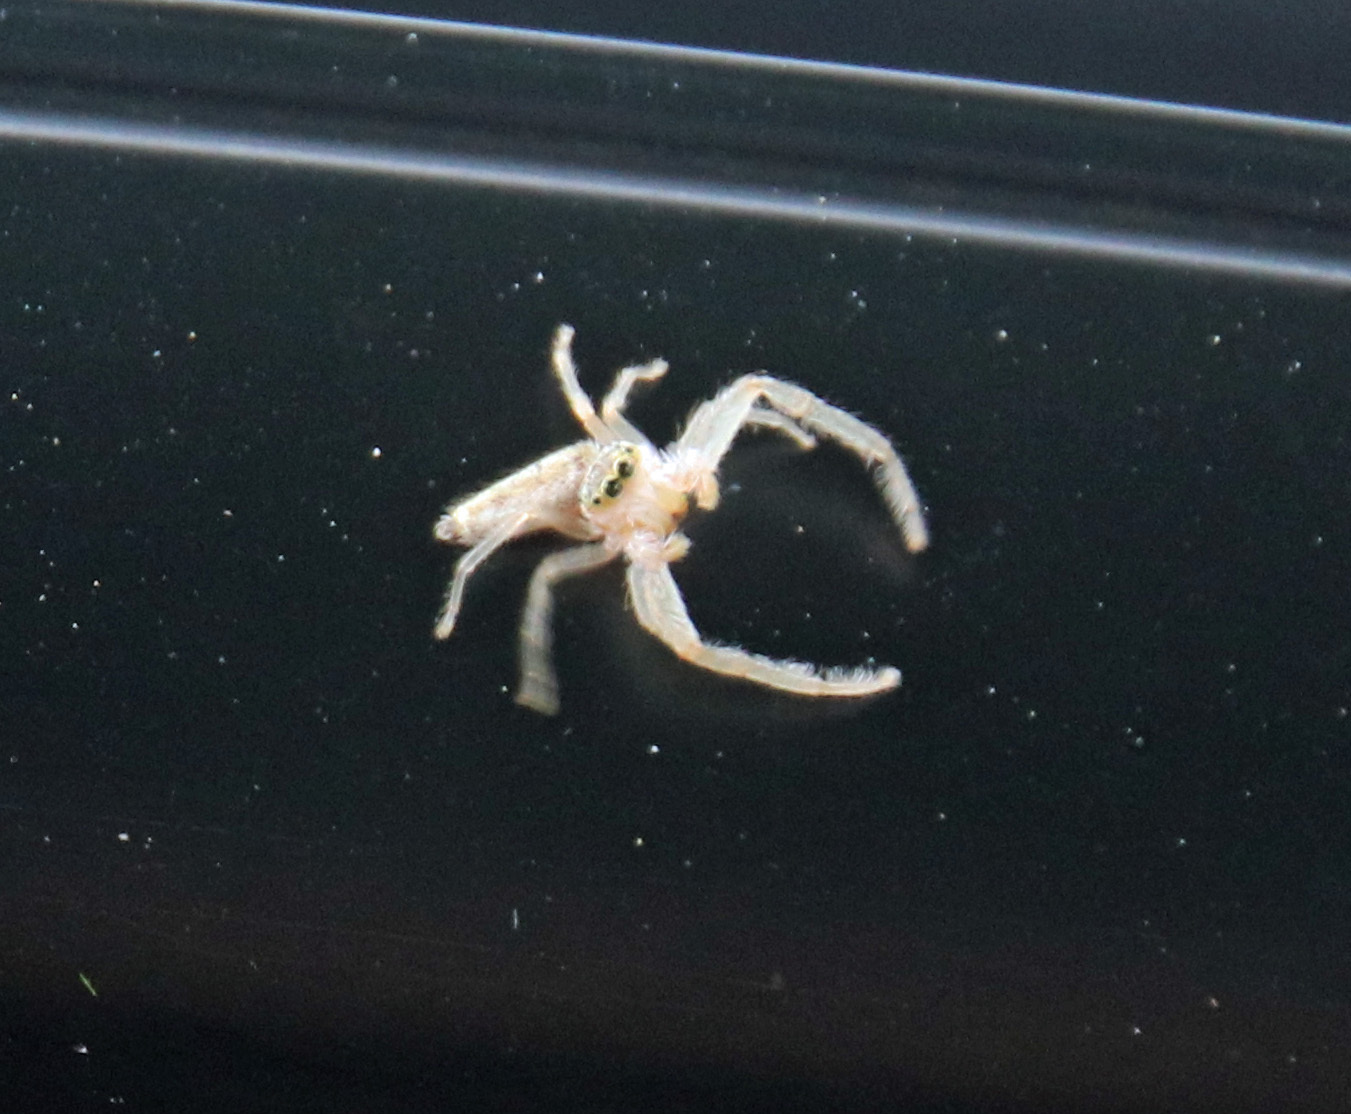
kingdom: Animalia
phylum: Arthropoda
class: Arachnida
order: Araneae
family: Salticidae
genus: Hentzia
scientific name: Hentzia mitrata
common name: White-jawed jumping spider
